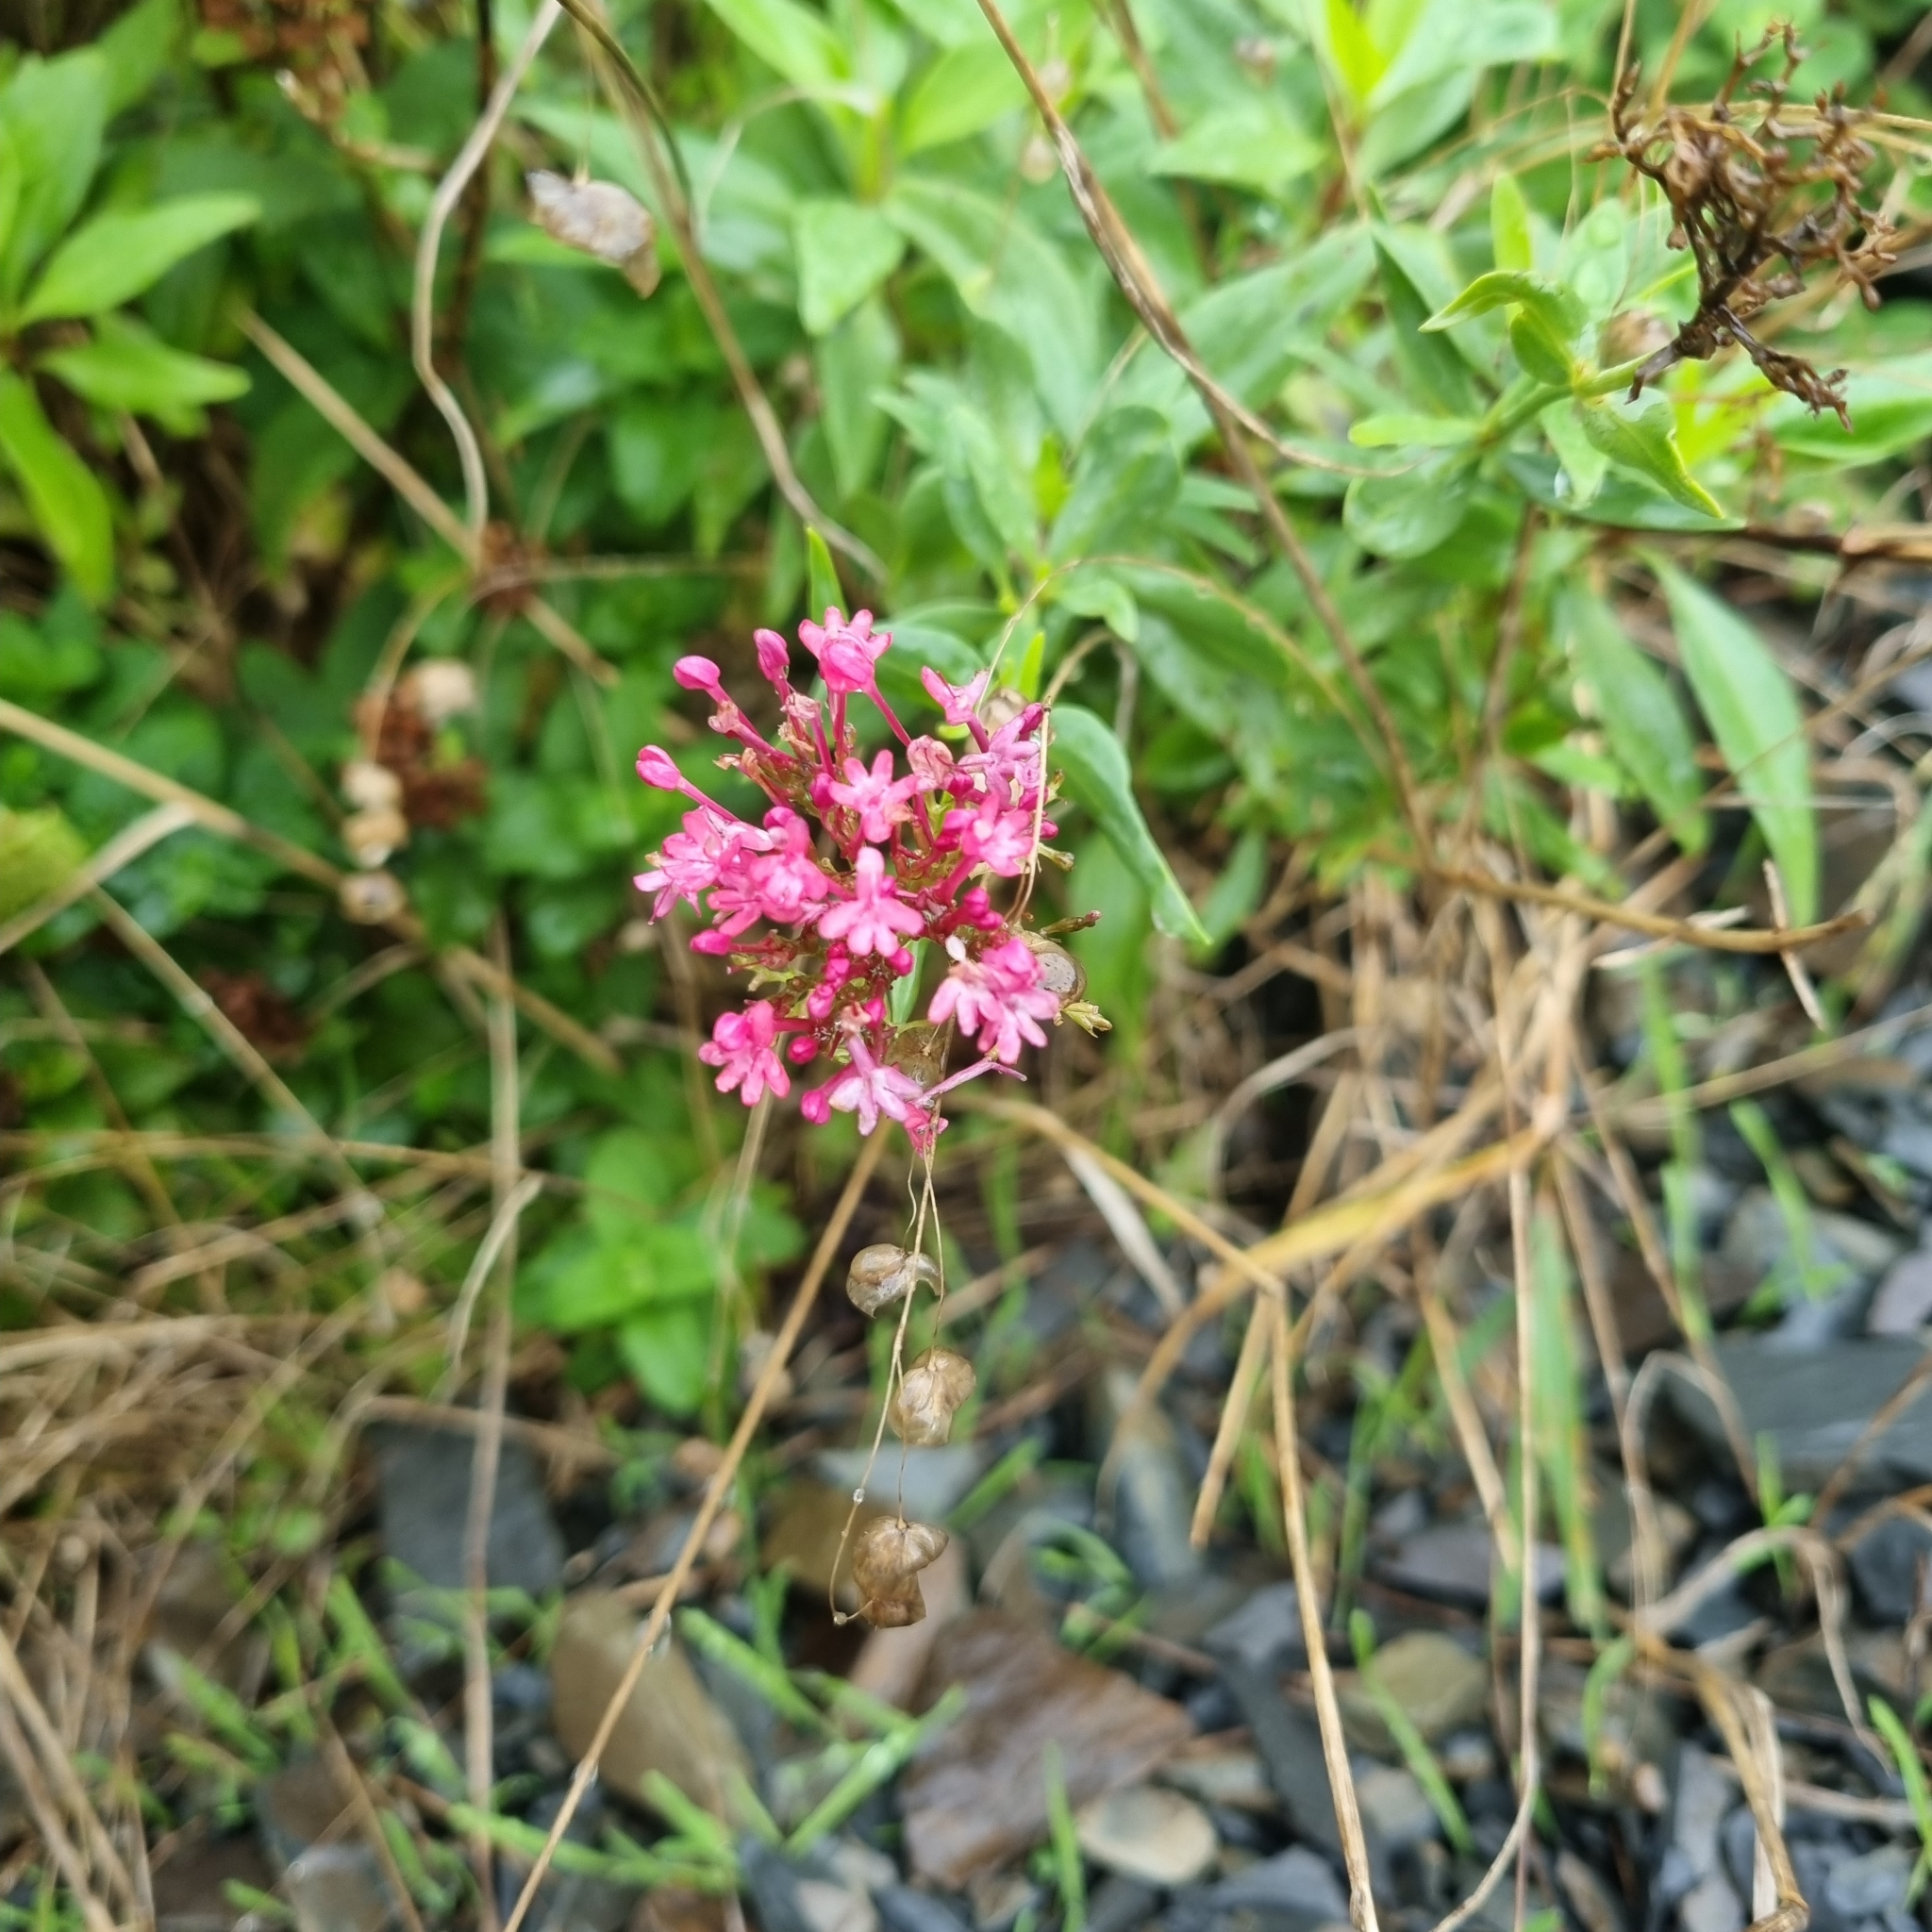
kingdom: Plantae
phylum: Tracheophyta
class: Magnoliopsida
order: Dipsacales
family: Caprifoliaceae
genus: Centranthus
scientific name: Centranthus ruber
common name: Red valerian
